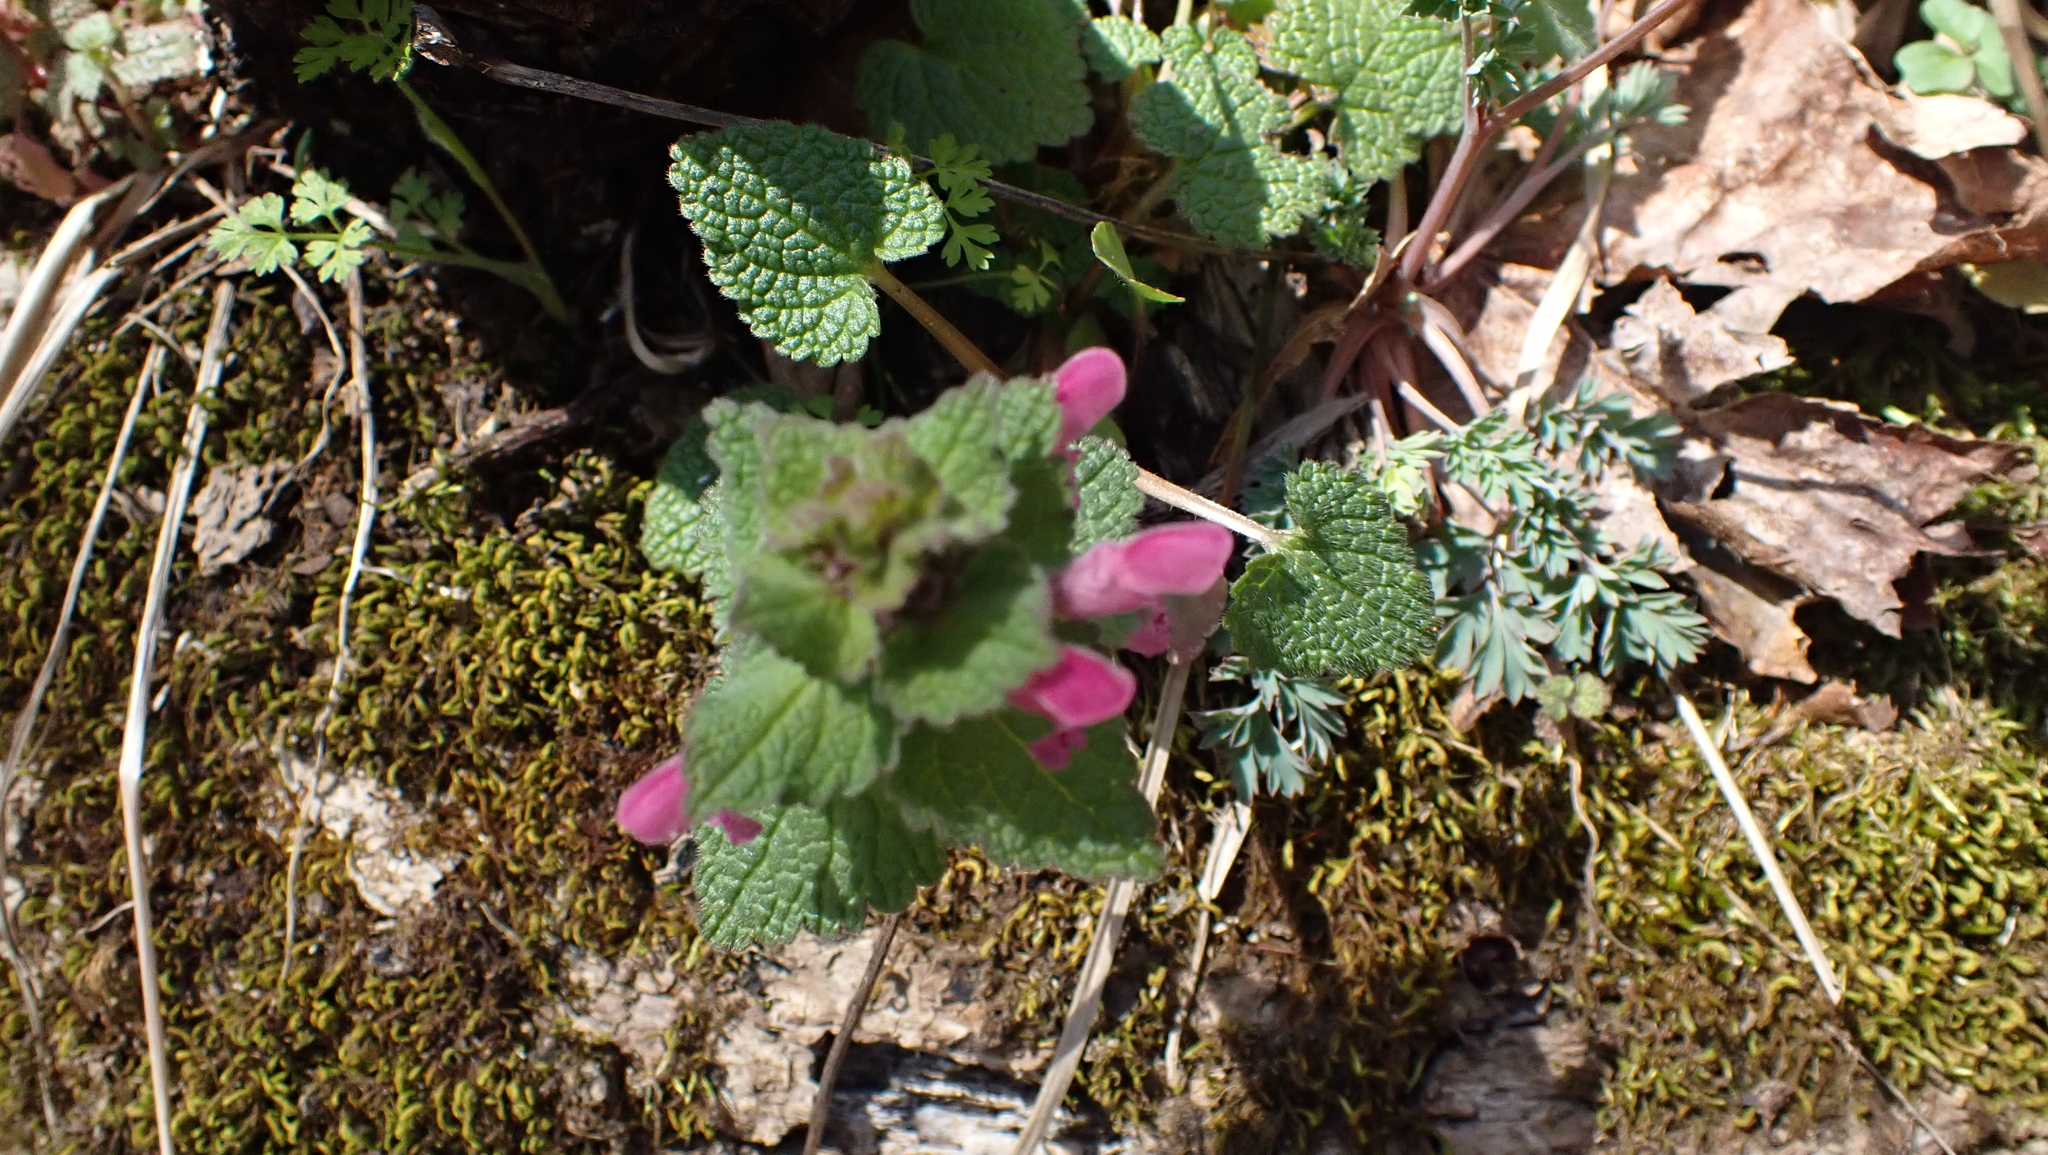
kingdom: Plantae
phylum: Tracheophyta
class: Magnoliopsida
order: Lamiales
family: Lamiaceae
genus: Lamium
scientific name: Lamium purpureum
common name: Red dead-nettle
